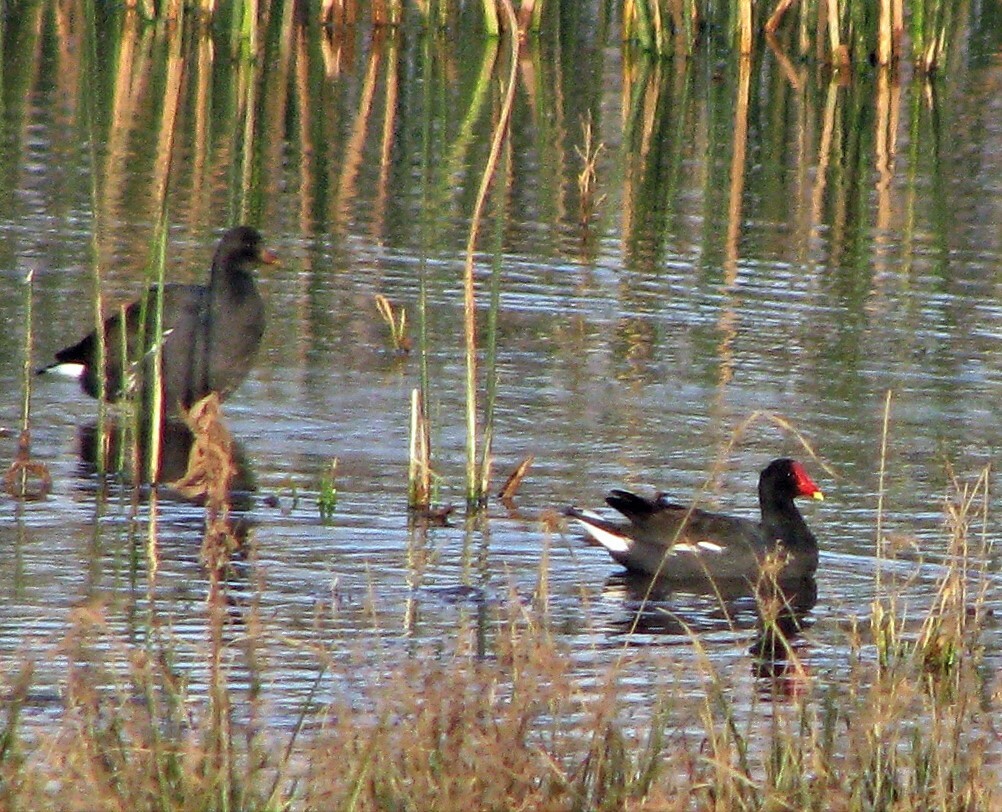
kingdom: Animalia
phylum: Chordata
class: Aves
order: Gruiformes
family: Rallidae
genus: Gallinula
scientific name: Gallinula chloropus
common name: Common moorhen
